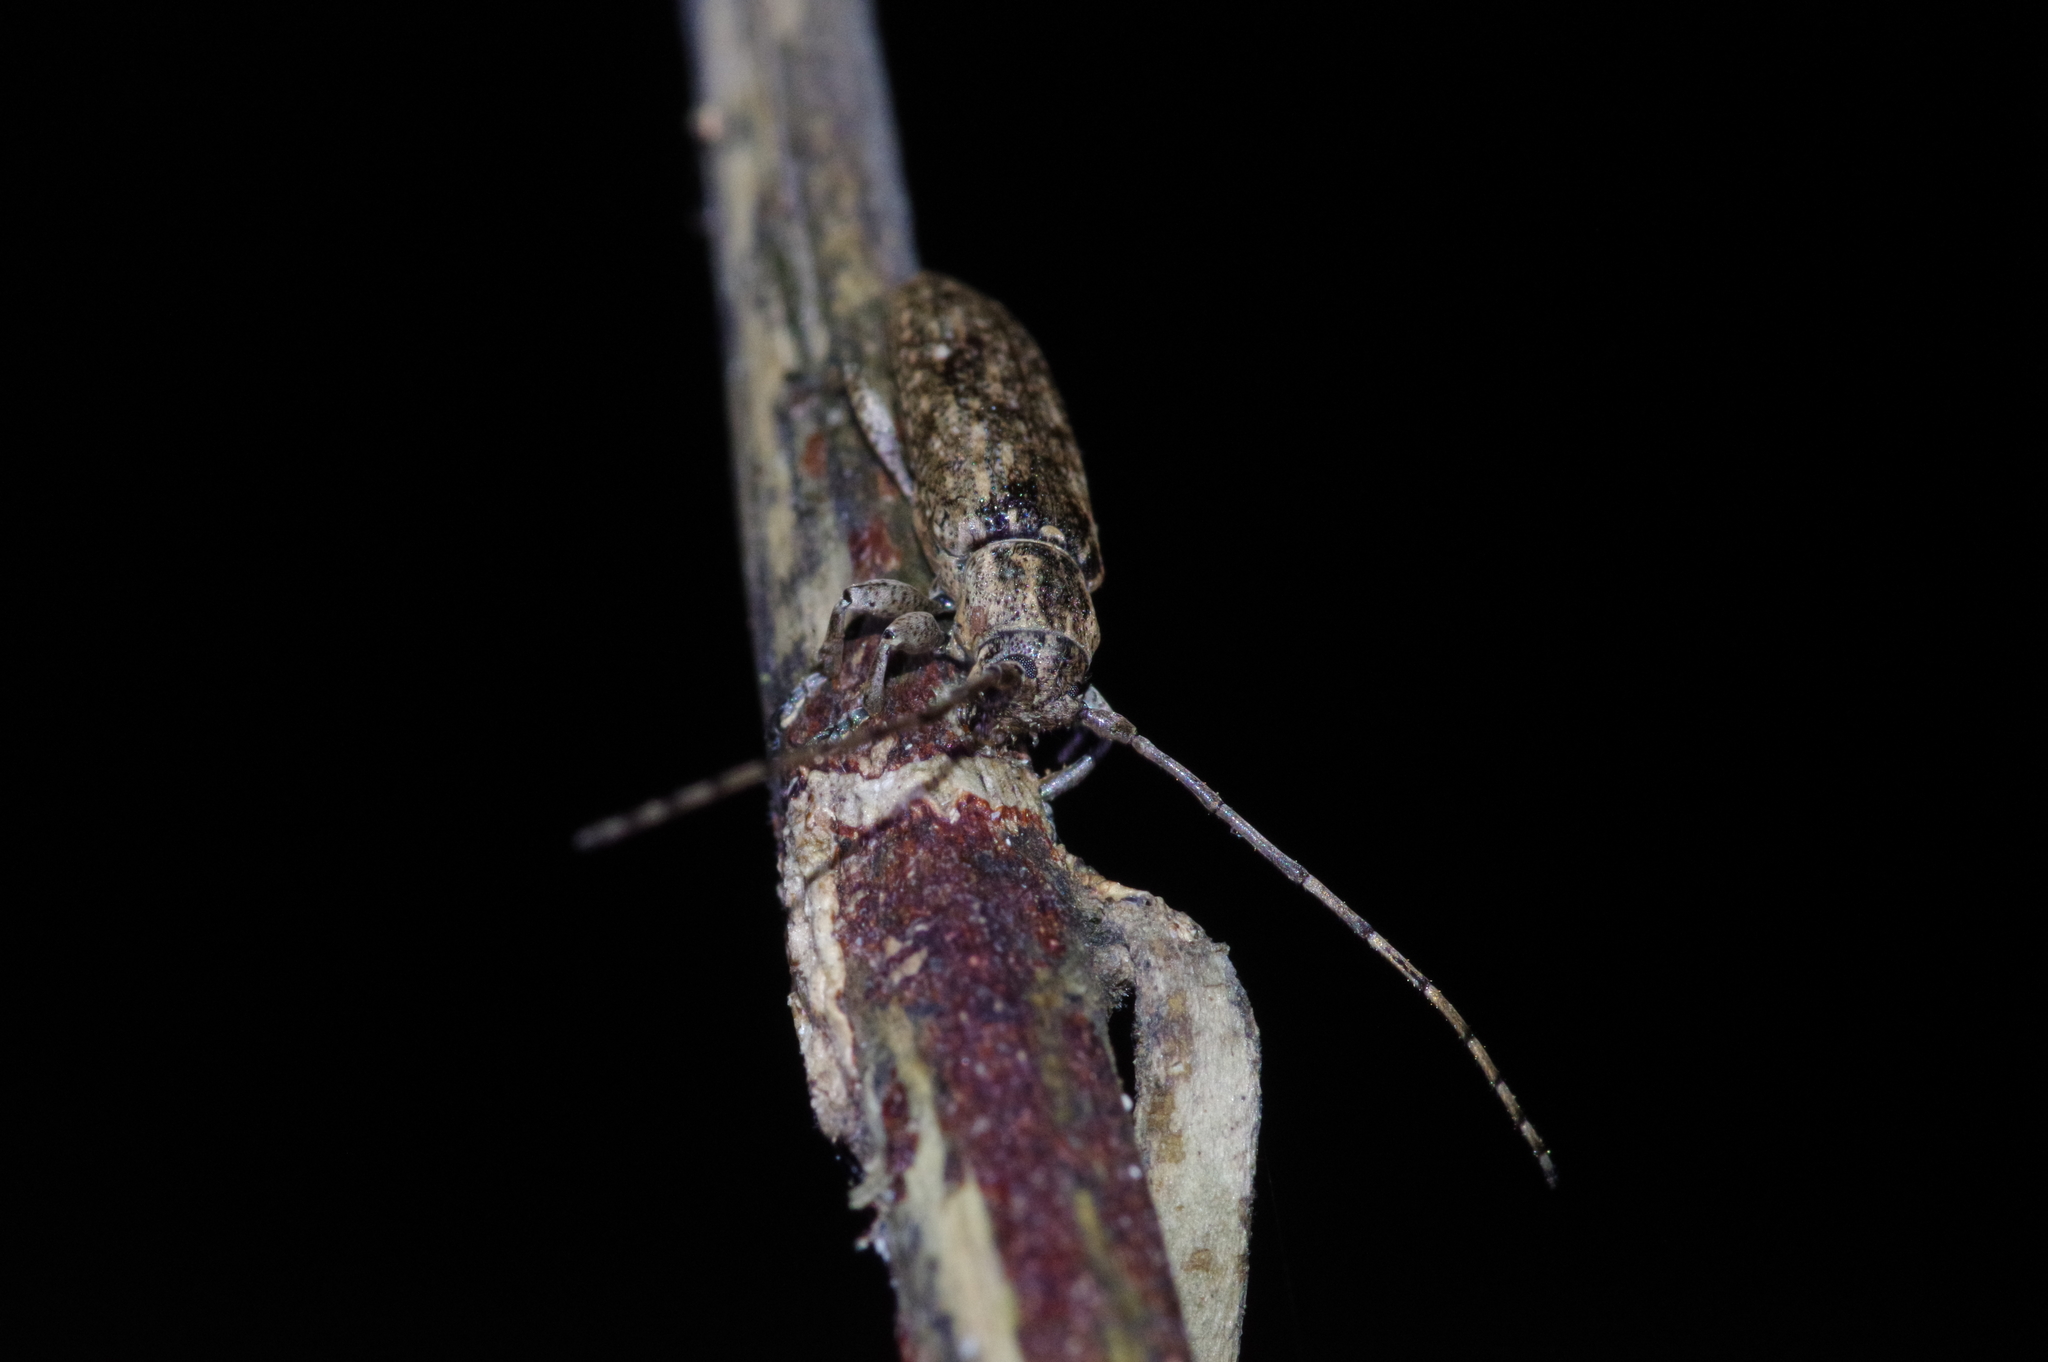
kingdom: Animalia
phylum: Arthropoda
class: Insecta
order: Coleoptera
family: Cerambycidae
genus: Mycerinopsis
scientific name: Mycerinopsis ordinata
